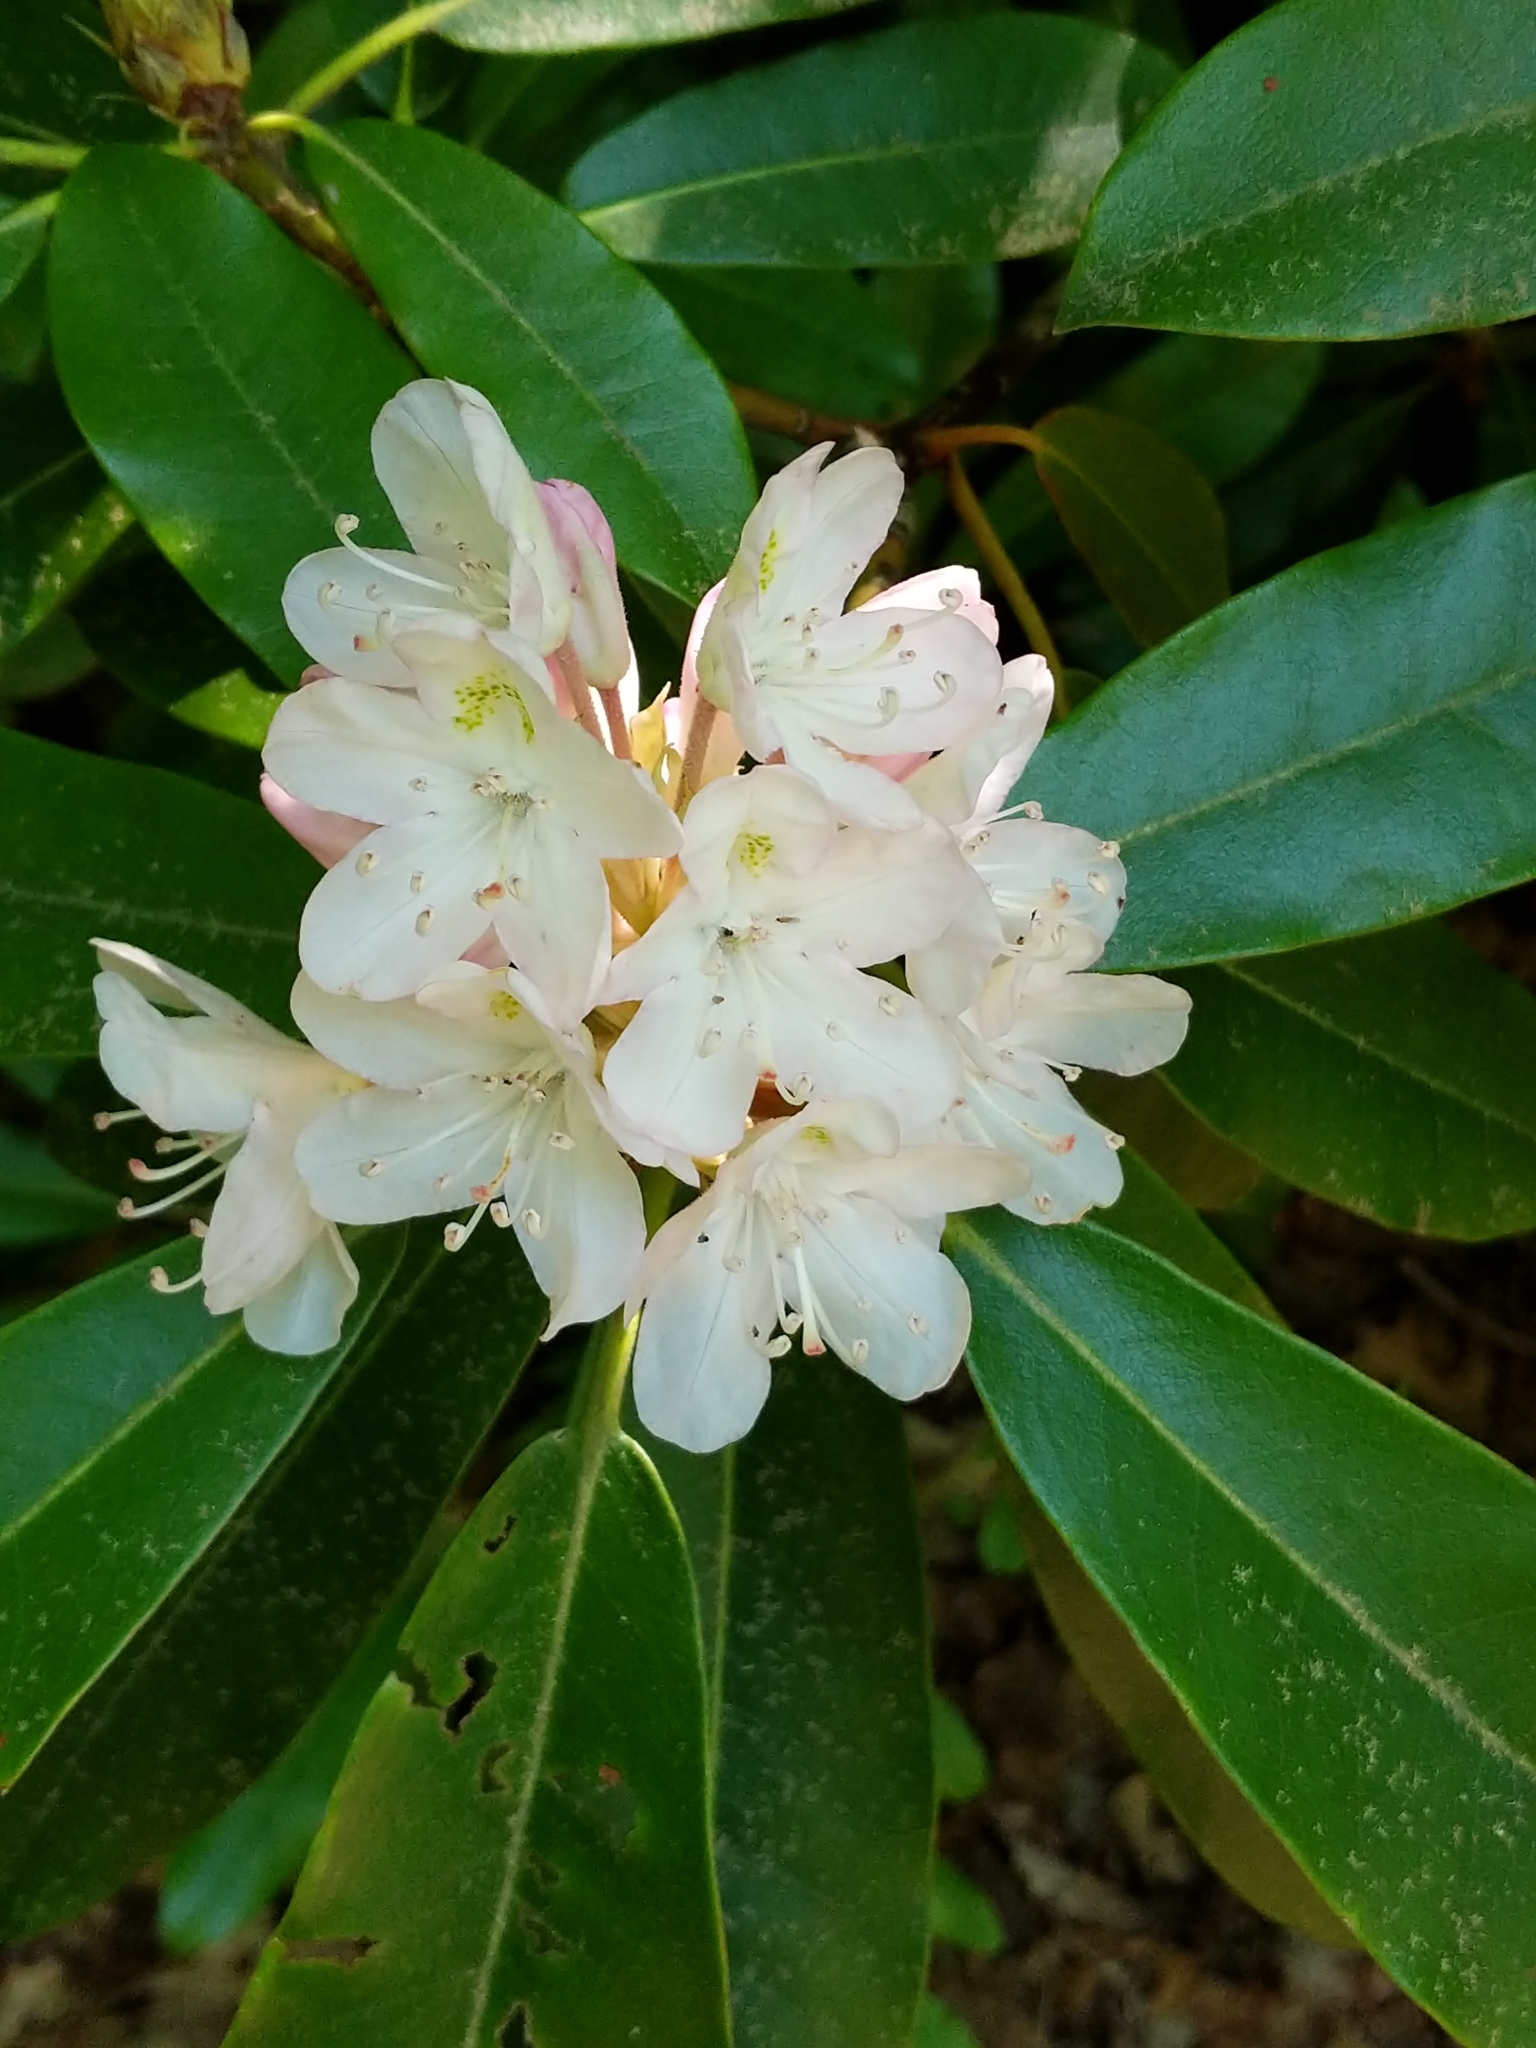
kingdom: Plantae
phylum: Tracheophyta
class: Magnoliopsida
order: Ericales
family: Ericaceae
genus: Rhododendron
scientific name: Rhododendron maximum
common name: Great rhododendron
